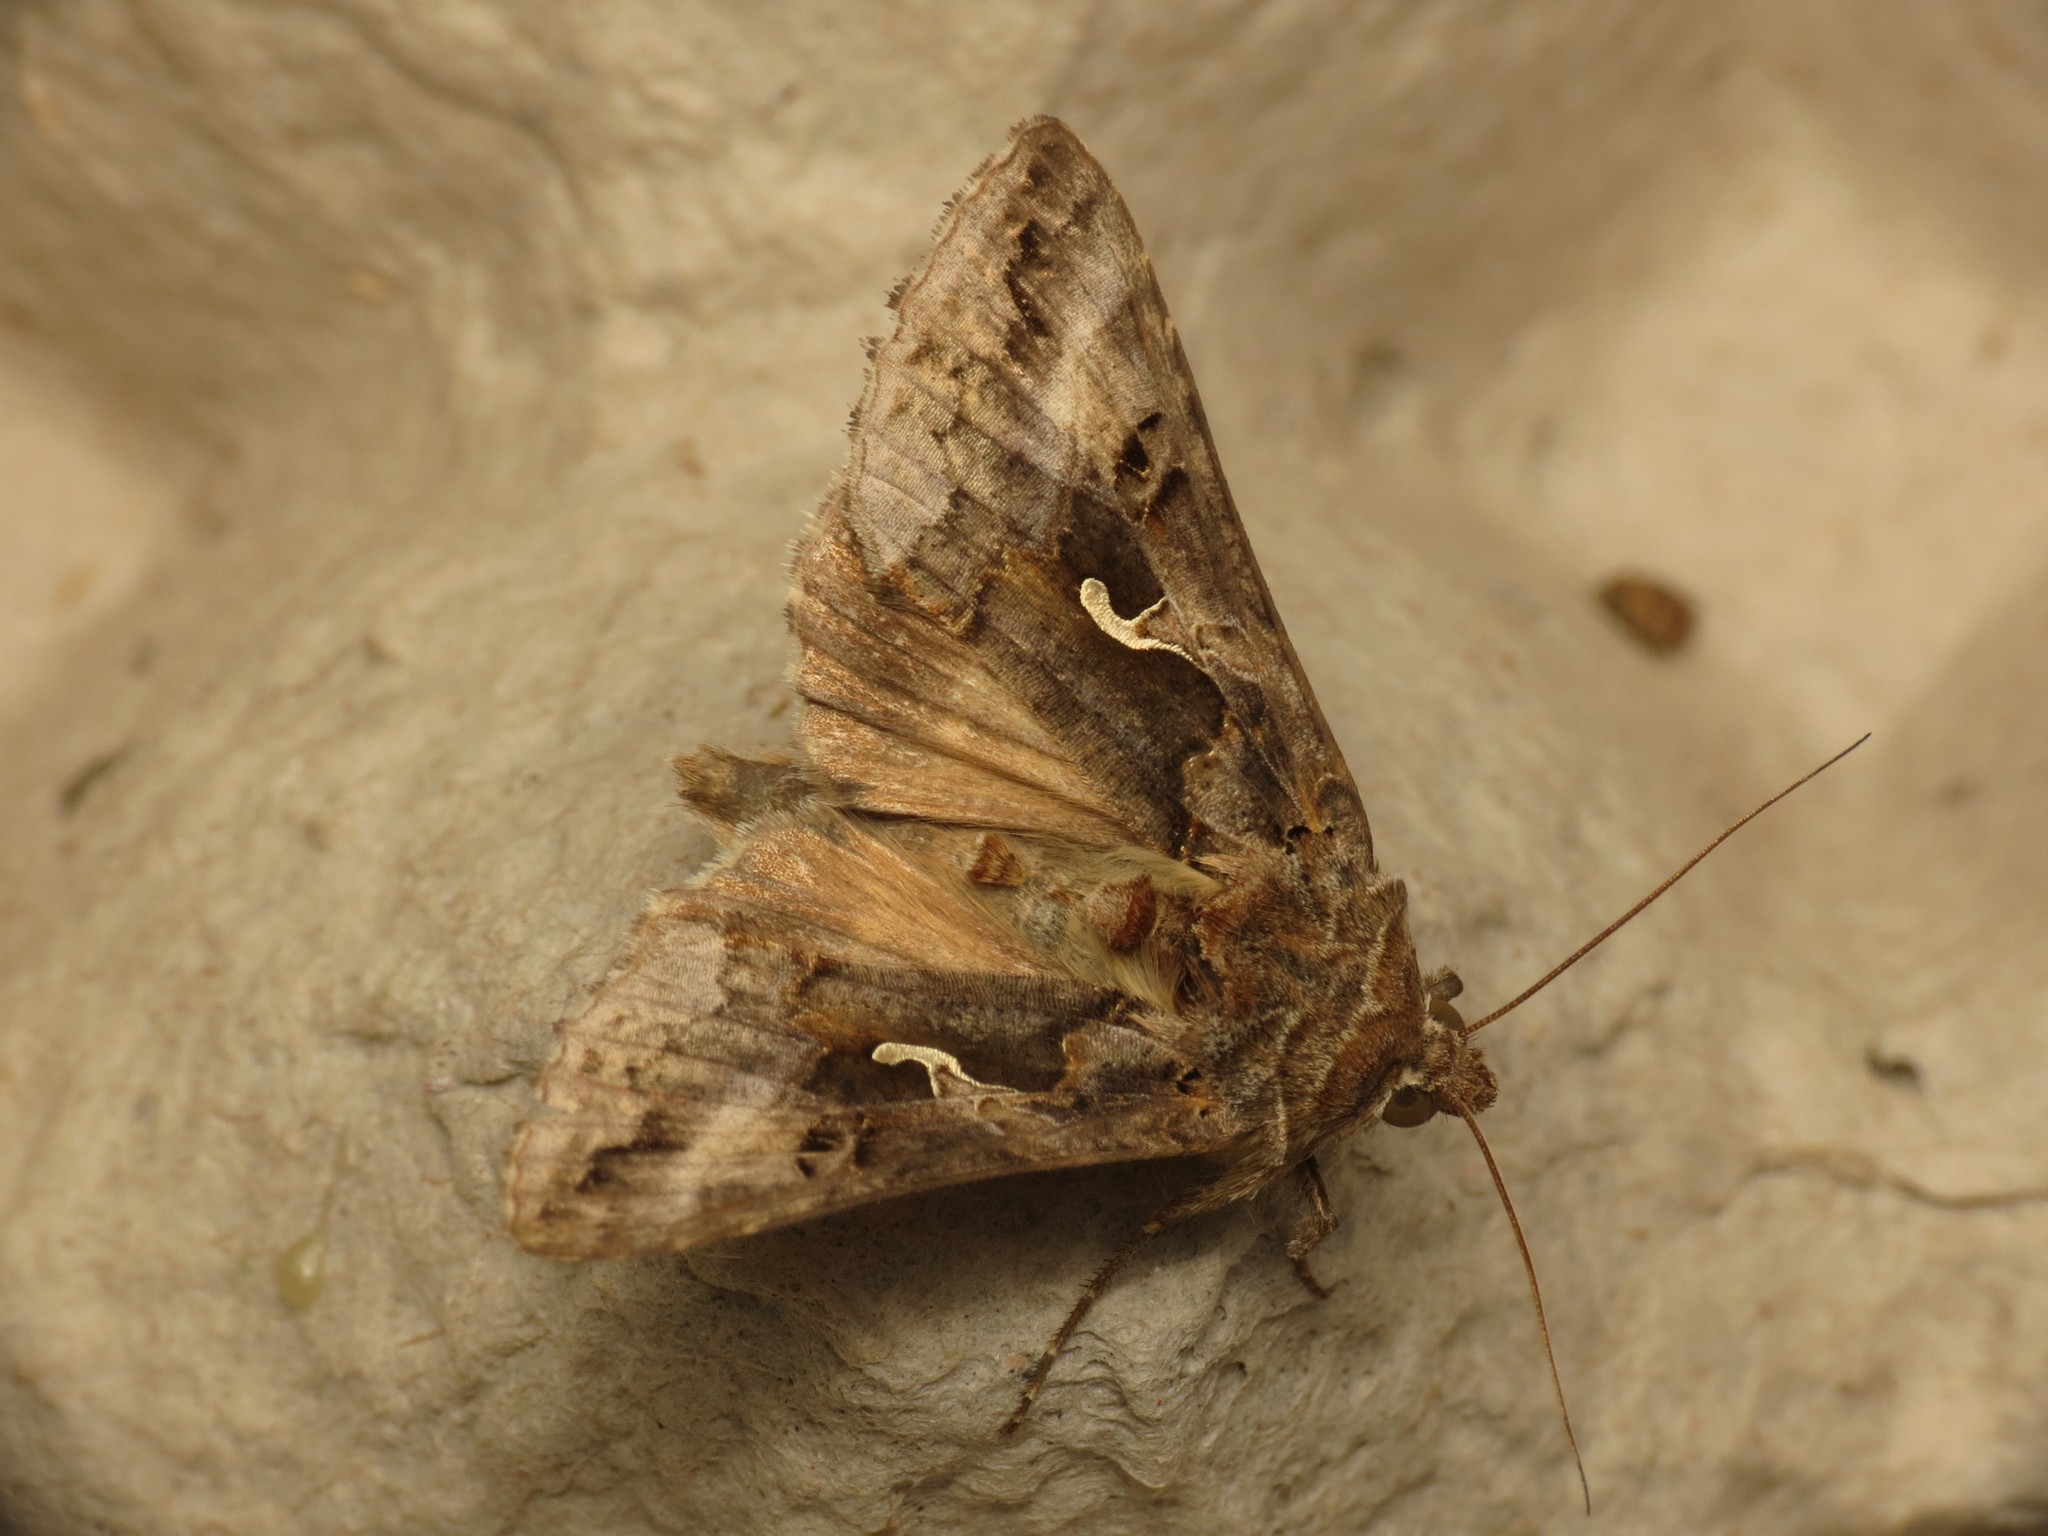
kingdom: Animalia
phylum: Arthropoda
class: Insecta
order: Lepidoptera
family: Noctuidae
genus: Autographa
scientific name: Autographa gamma
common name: Silver y
